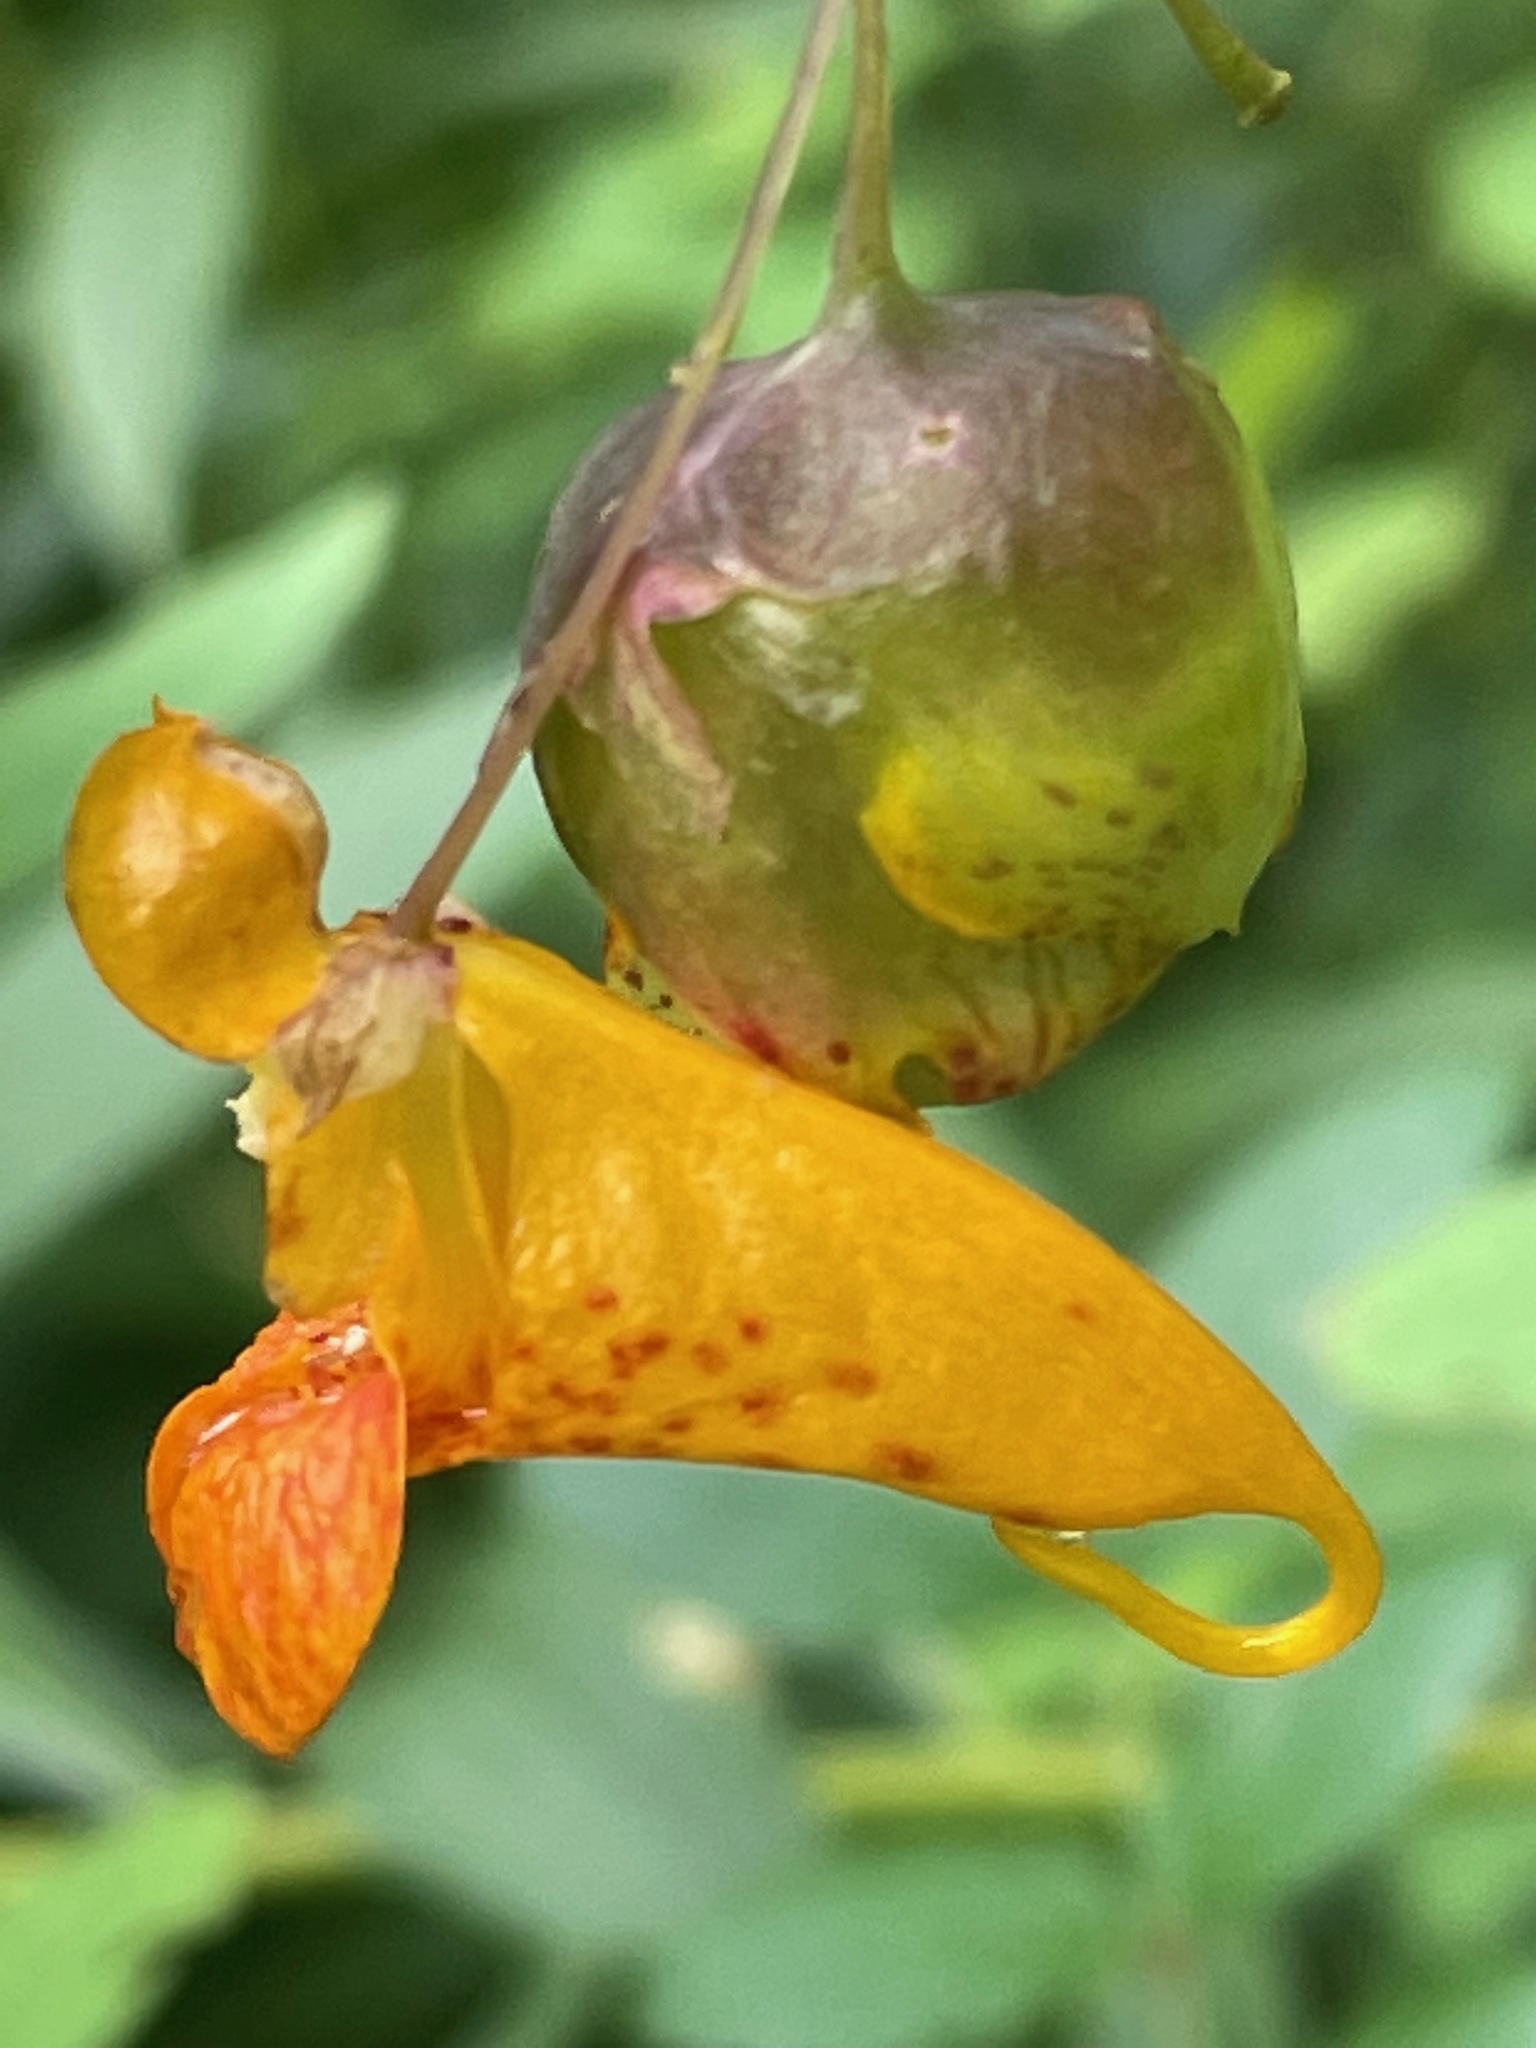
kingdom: Animalia
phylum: Arthropoda
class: Insecta
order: Diptera
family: Cecidomyiidae
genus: Schizomyia
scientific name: Schizomyia impatientis
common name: Jewelweed gall midge
